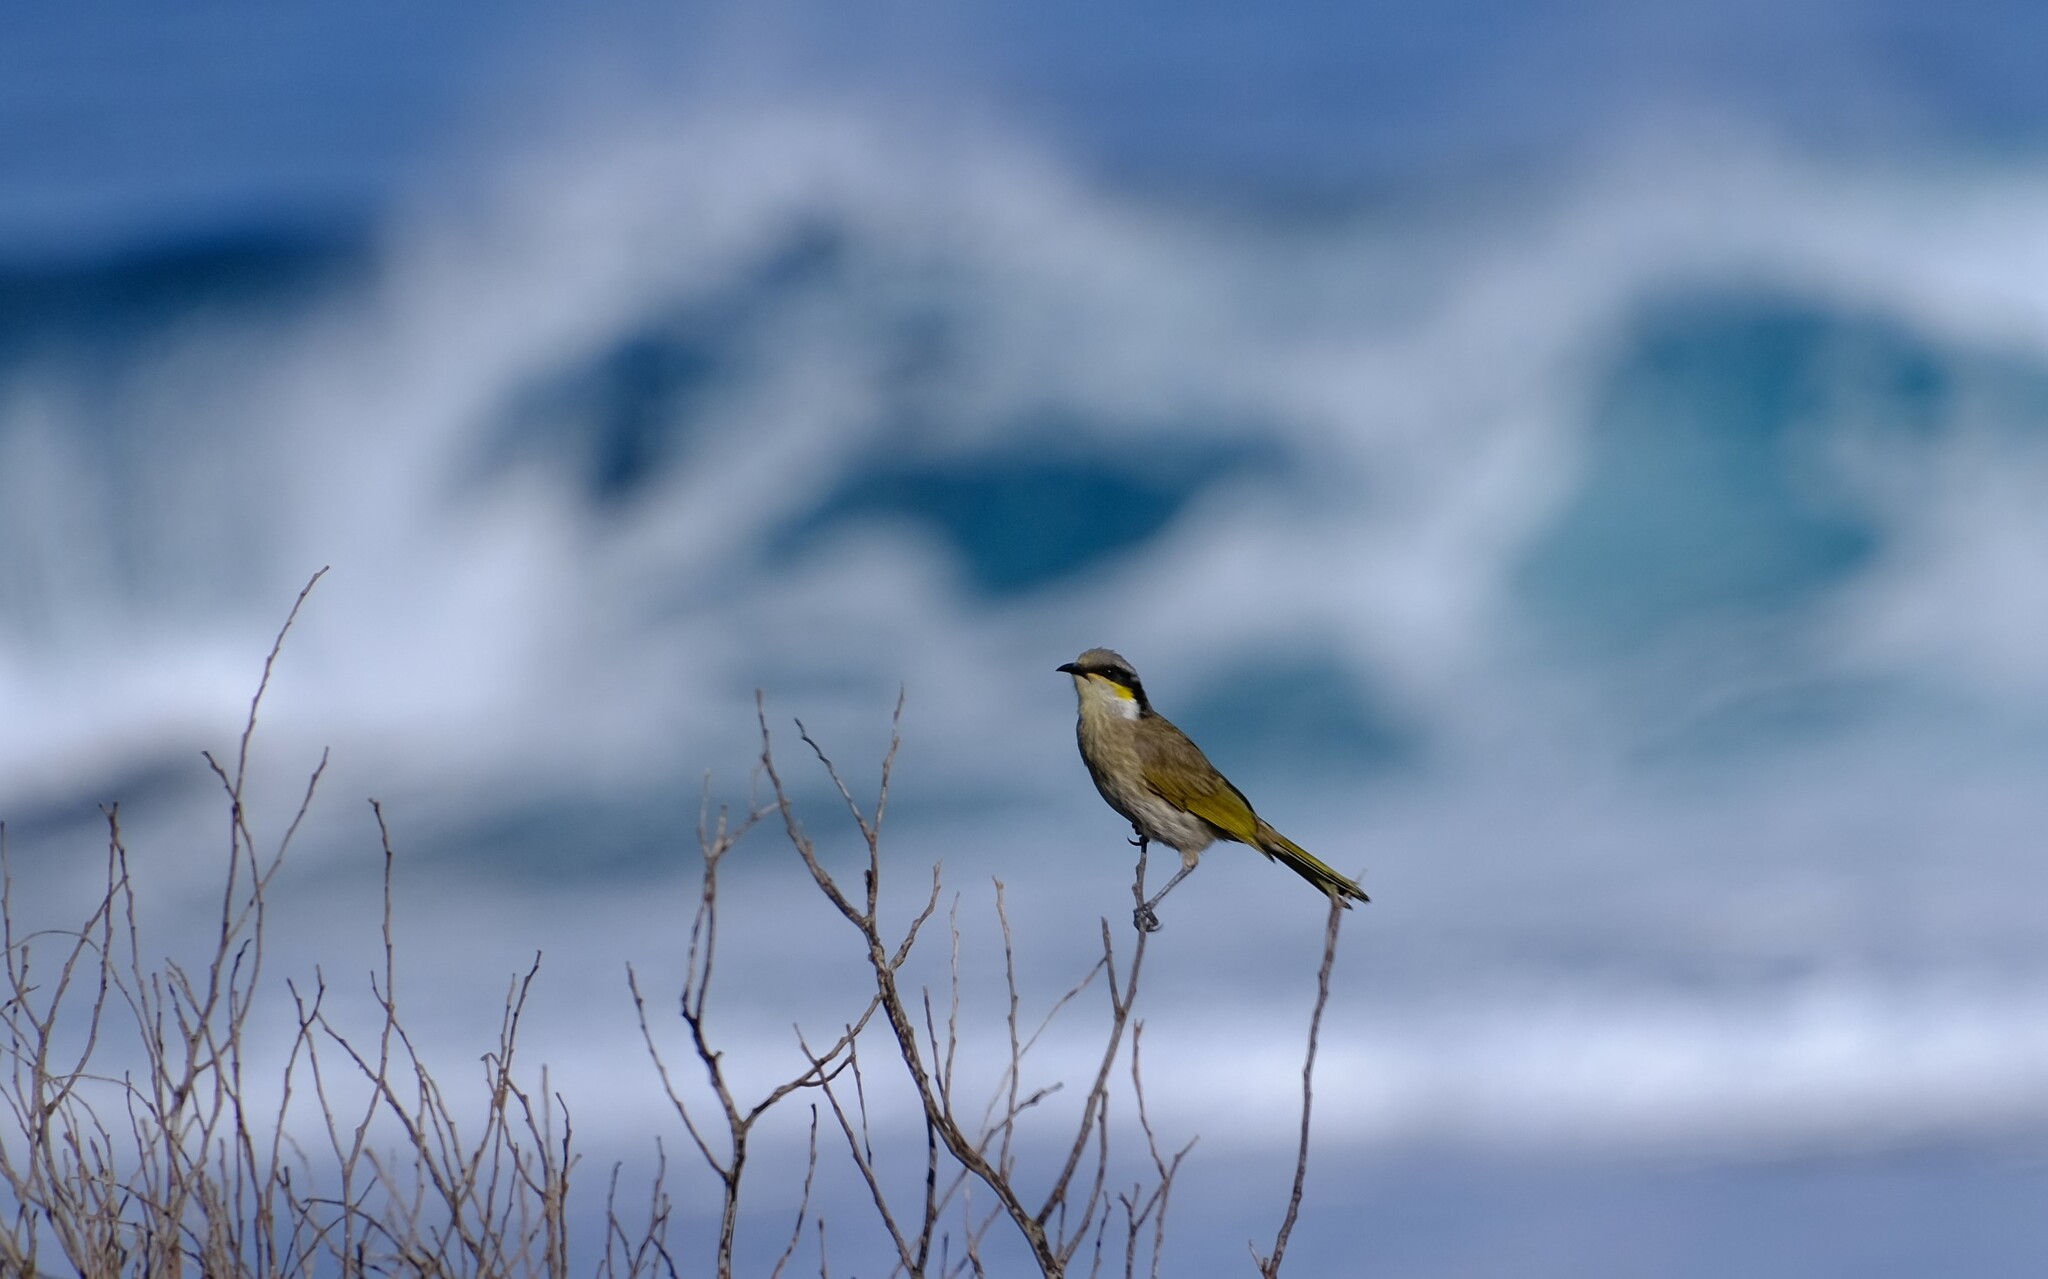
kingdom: Animalia
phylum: Chordata
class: Aves
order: Passeriformes
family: Meliphagidae
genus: Gavicalis
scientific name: Gavicalis virescens
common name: Singing honeyeater
